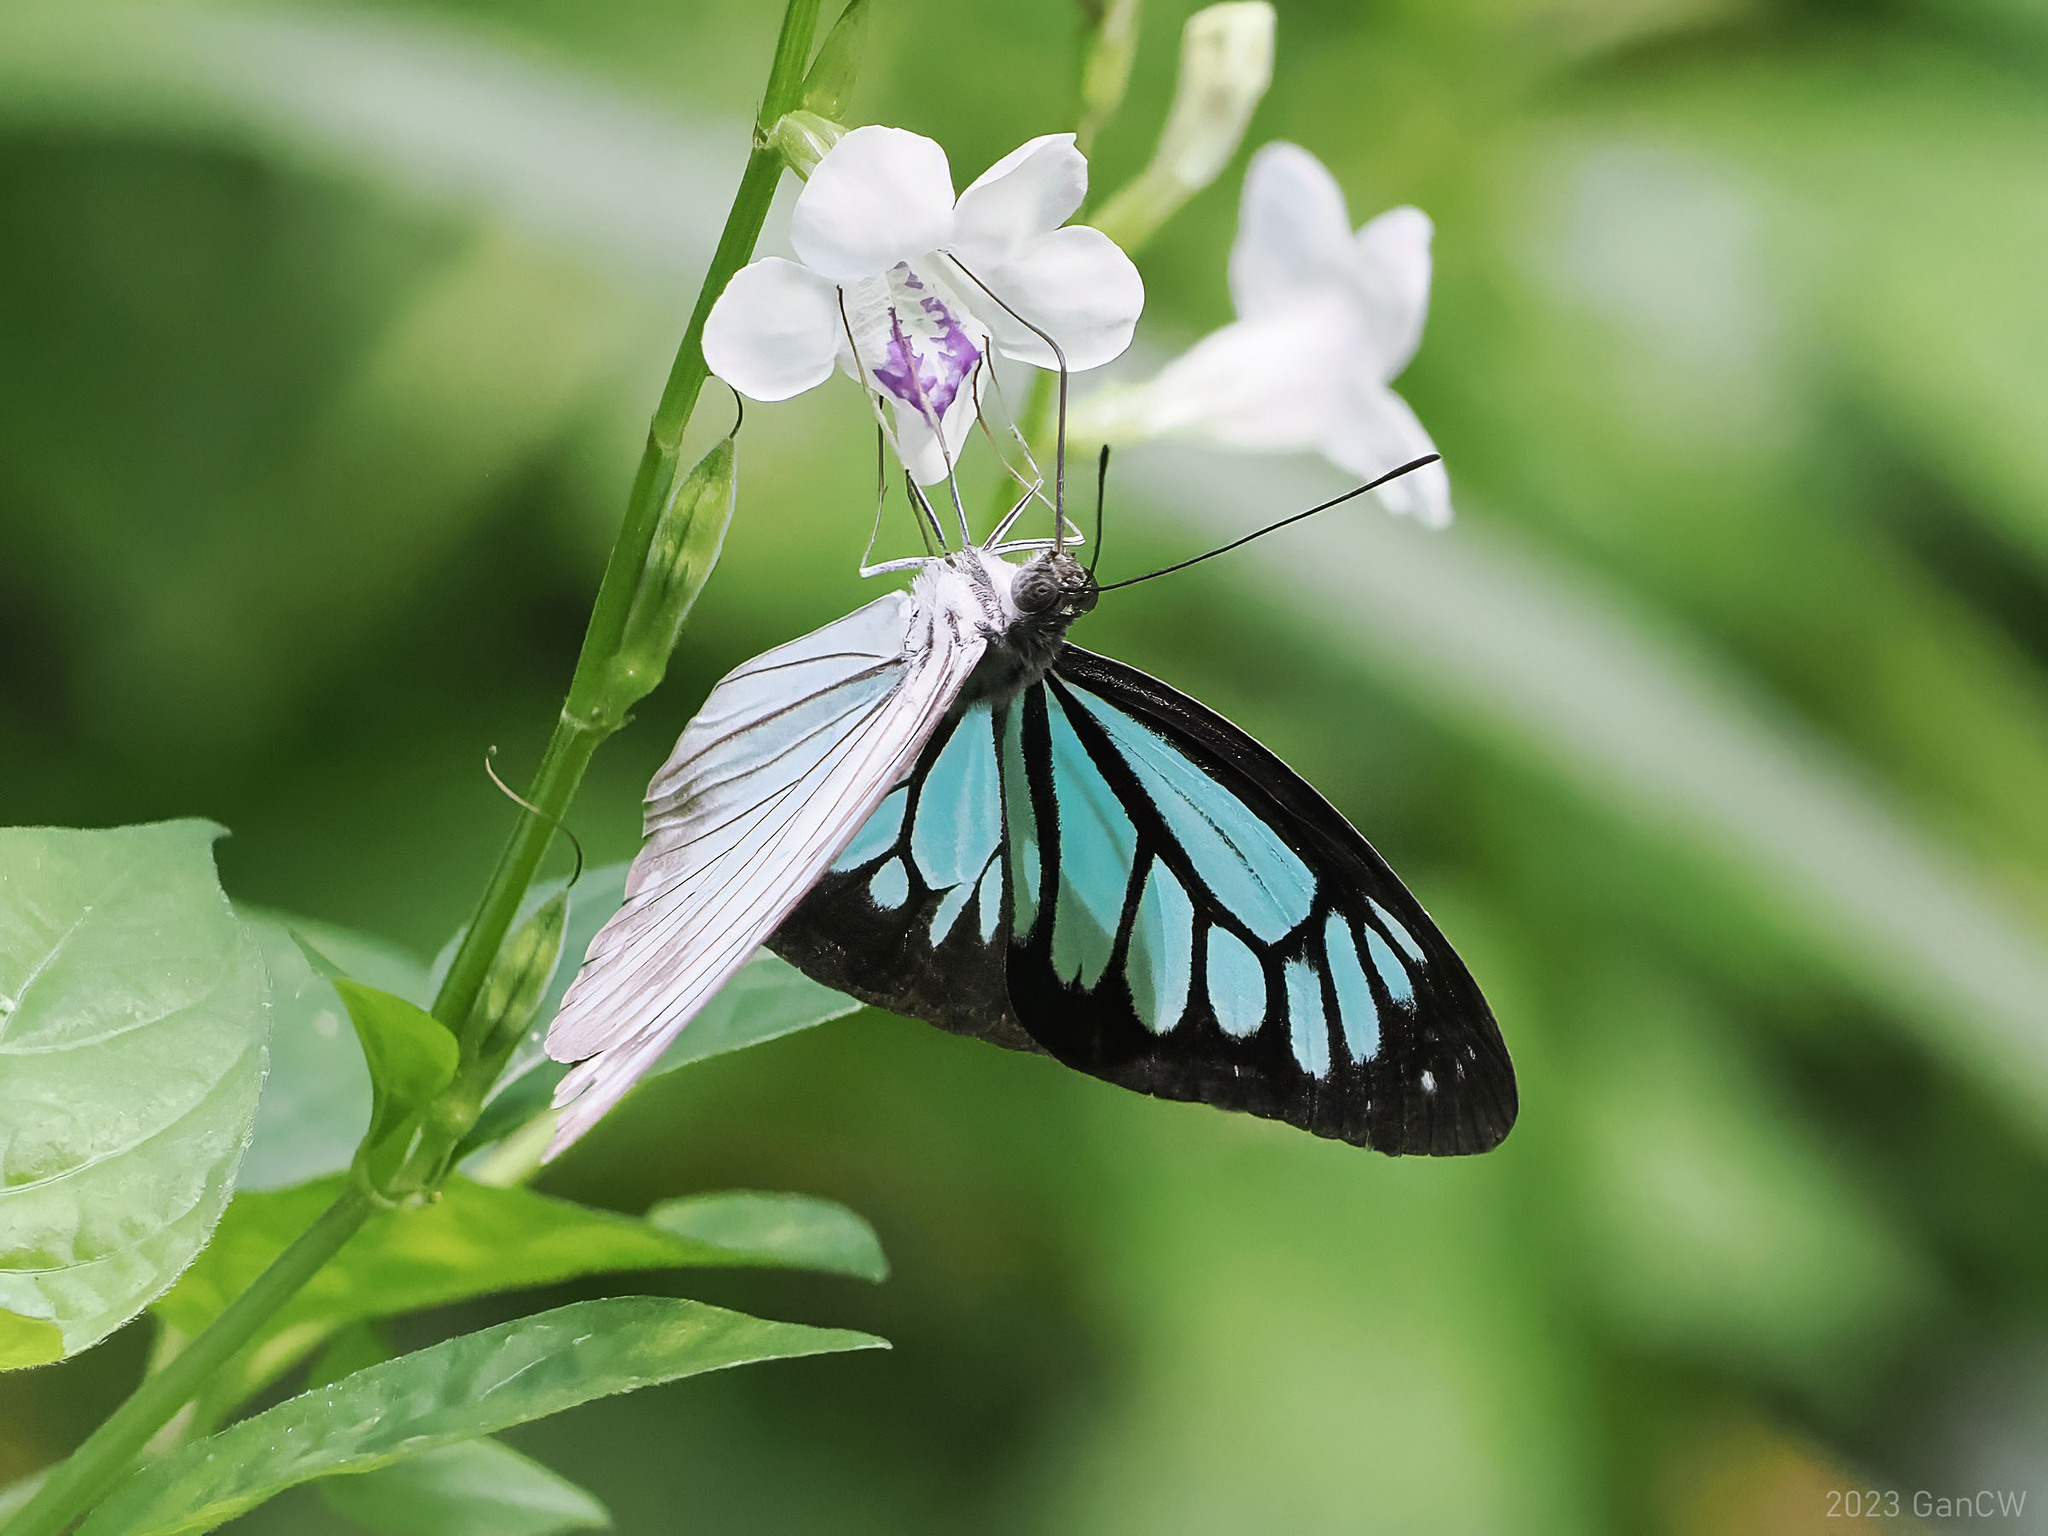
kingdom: Animalia
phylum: Arthropoda
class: Insecta
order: Lepidoptera
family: Pieridae
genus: Pareronia
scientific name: Pareronia boebera
